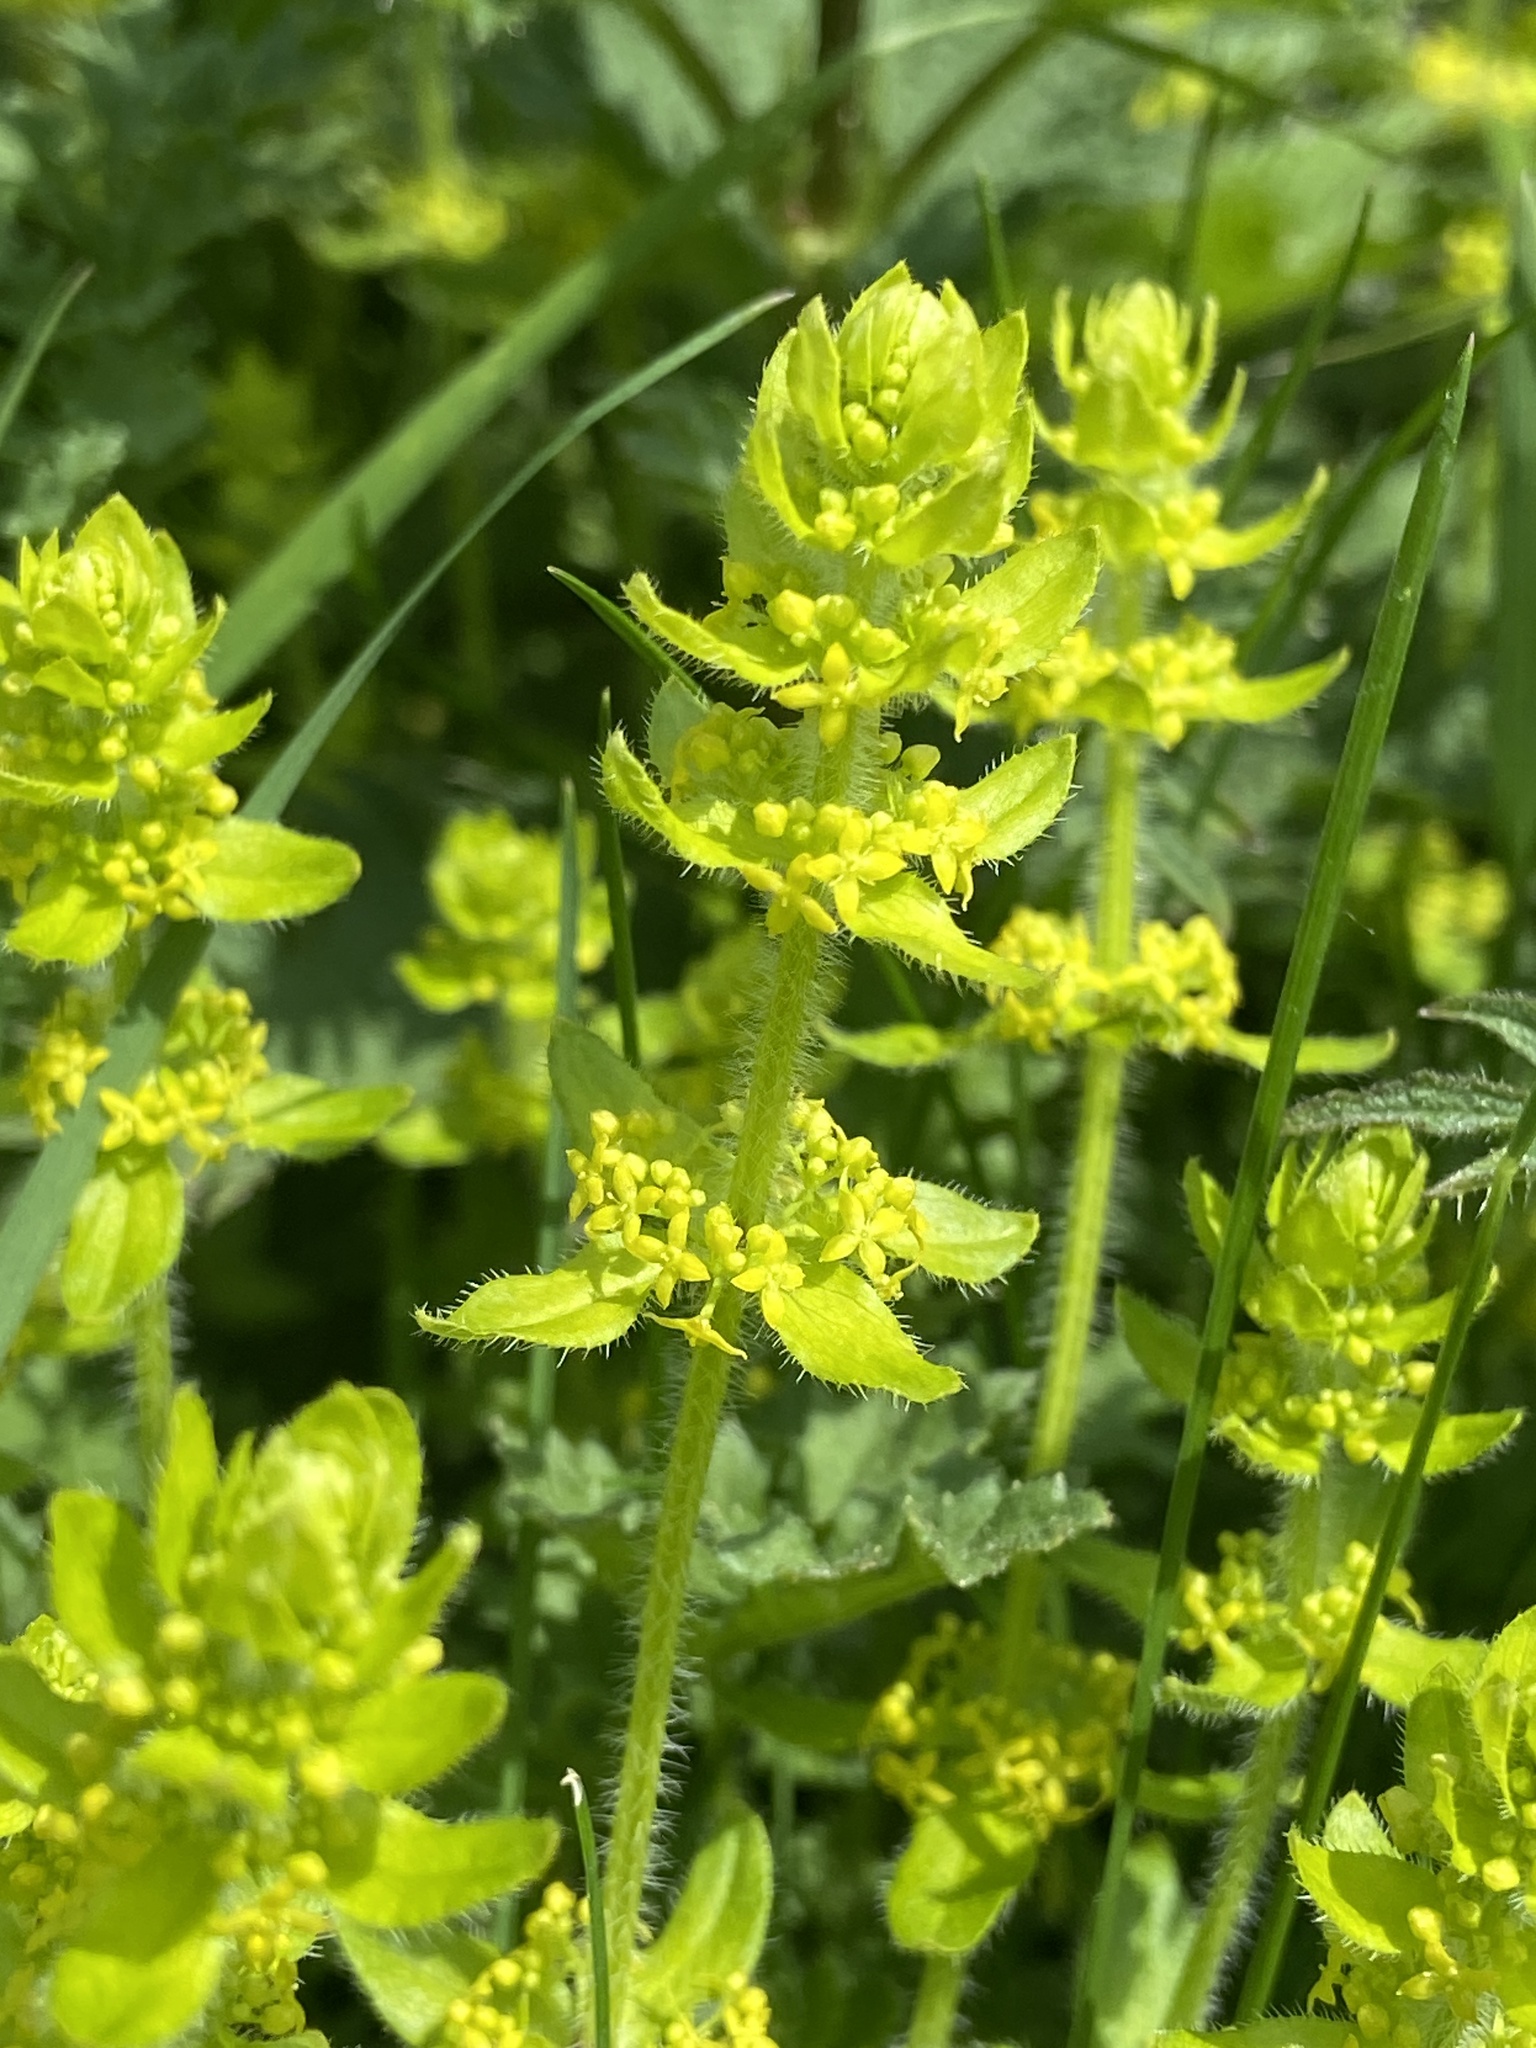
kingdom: Plantae
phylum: Tracheophyta
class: Magnoliopsida
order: Gentianales
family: Rubiaceae
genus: Cruciata
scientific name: Cruciata laevipes
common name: Crosswort
